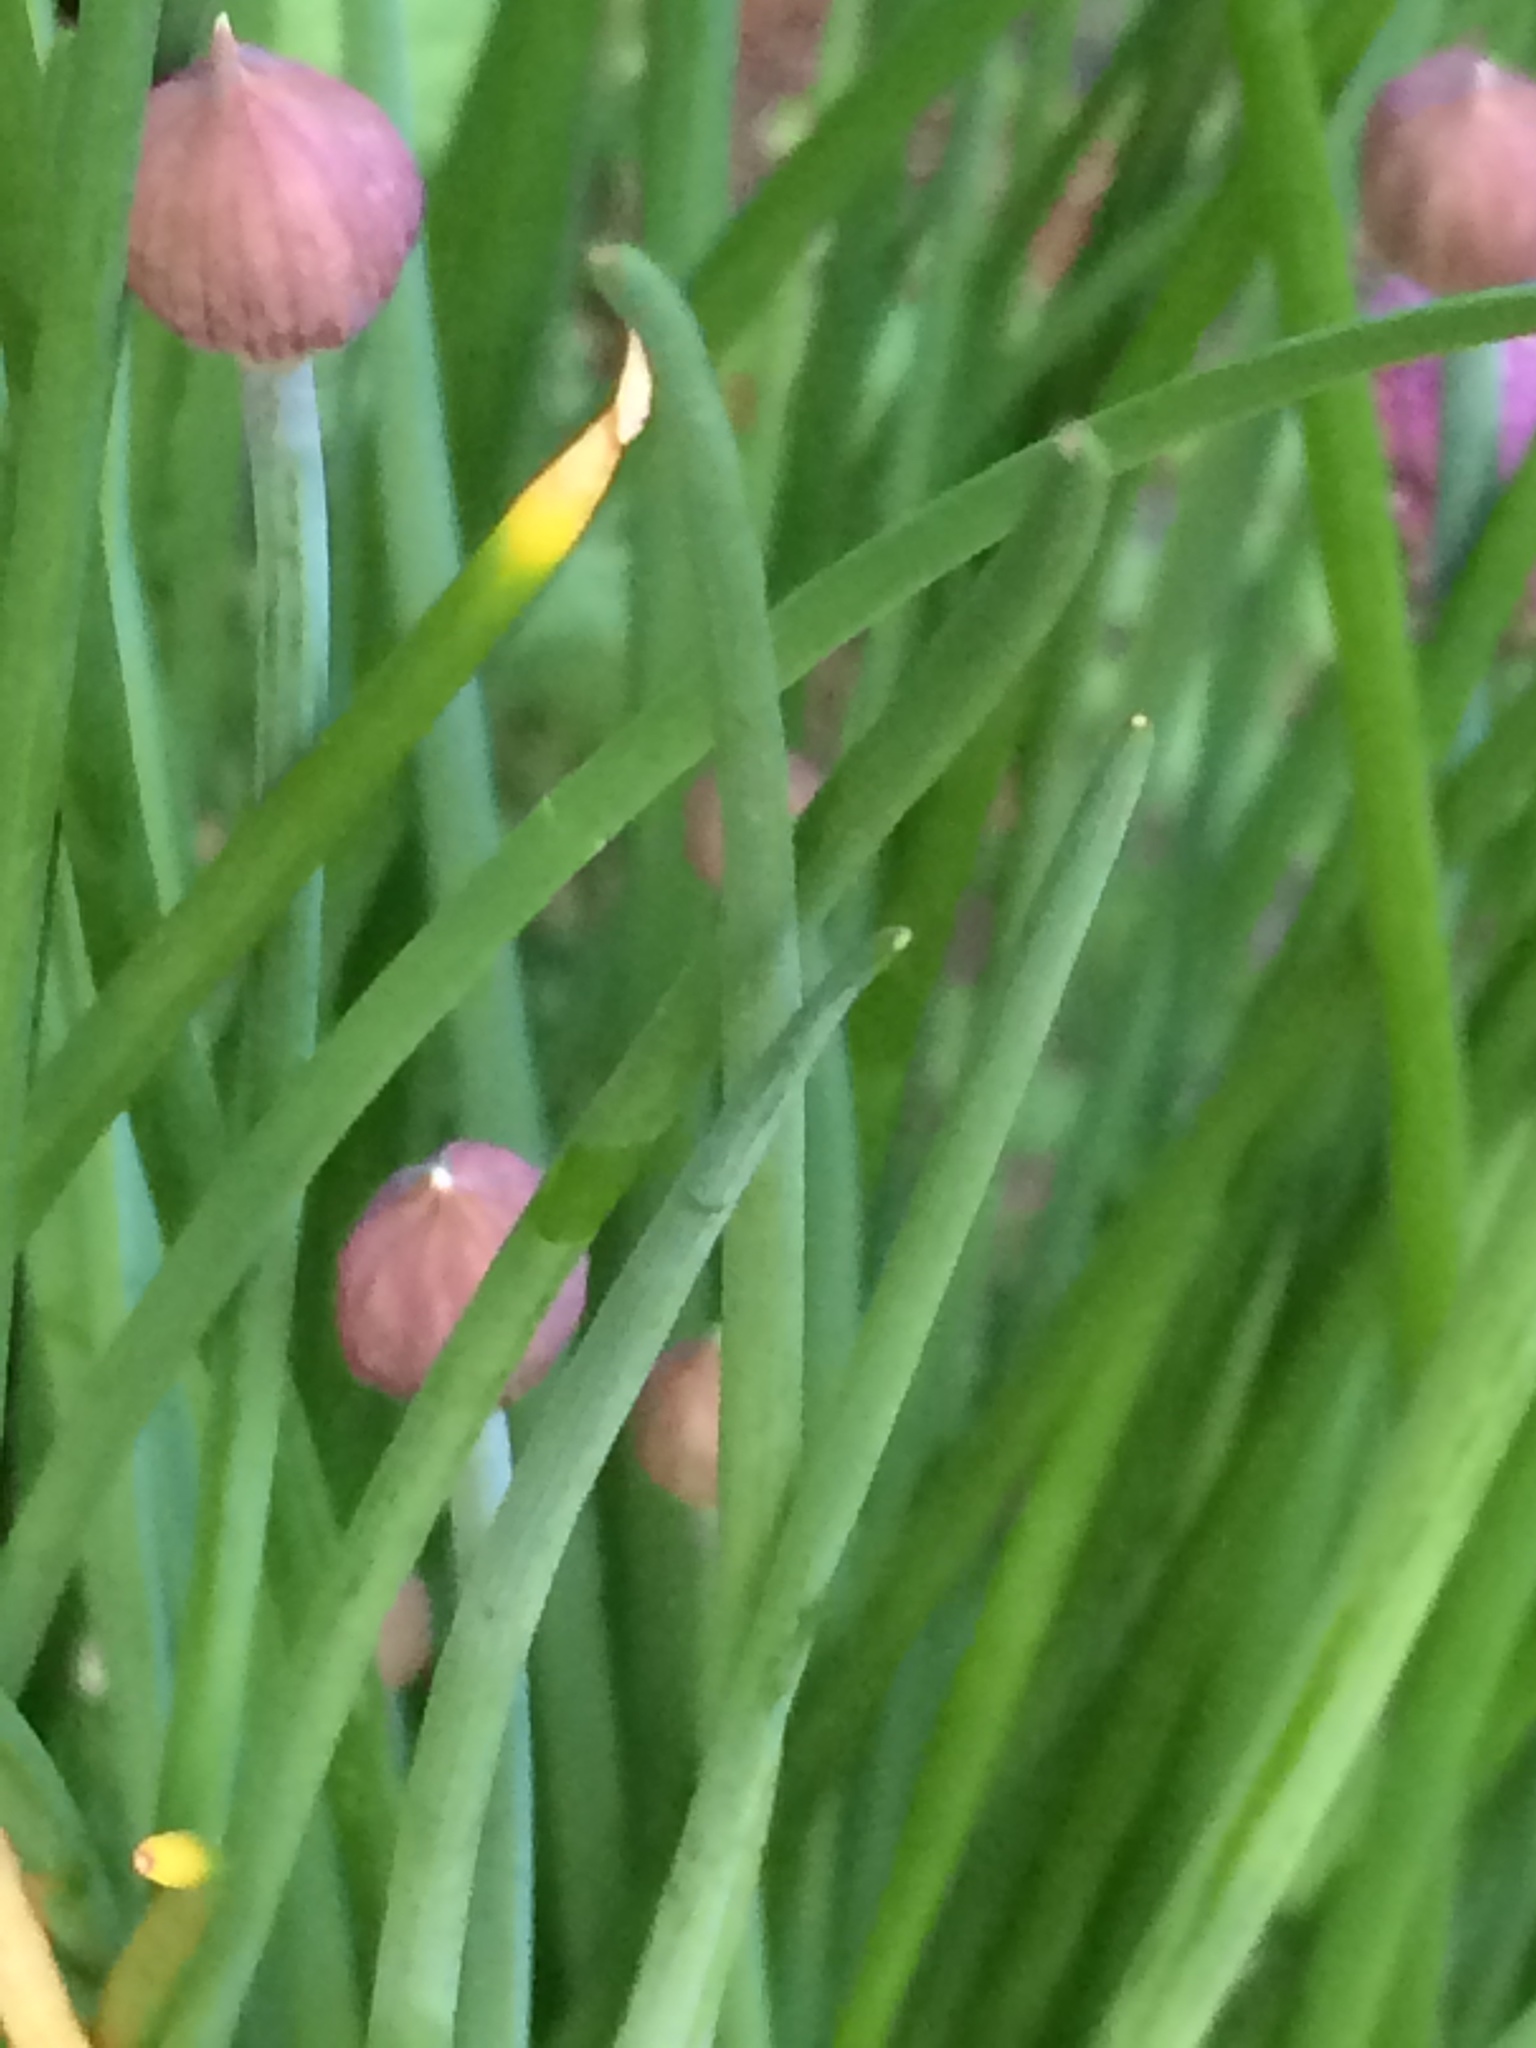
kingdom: Plantae
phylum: Tracheophyta
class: Liliopsida
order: Asparagales
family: Amaryllidaceae
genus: Allium
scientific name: Allium schoenoprasum
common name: Chives
